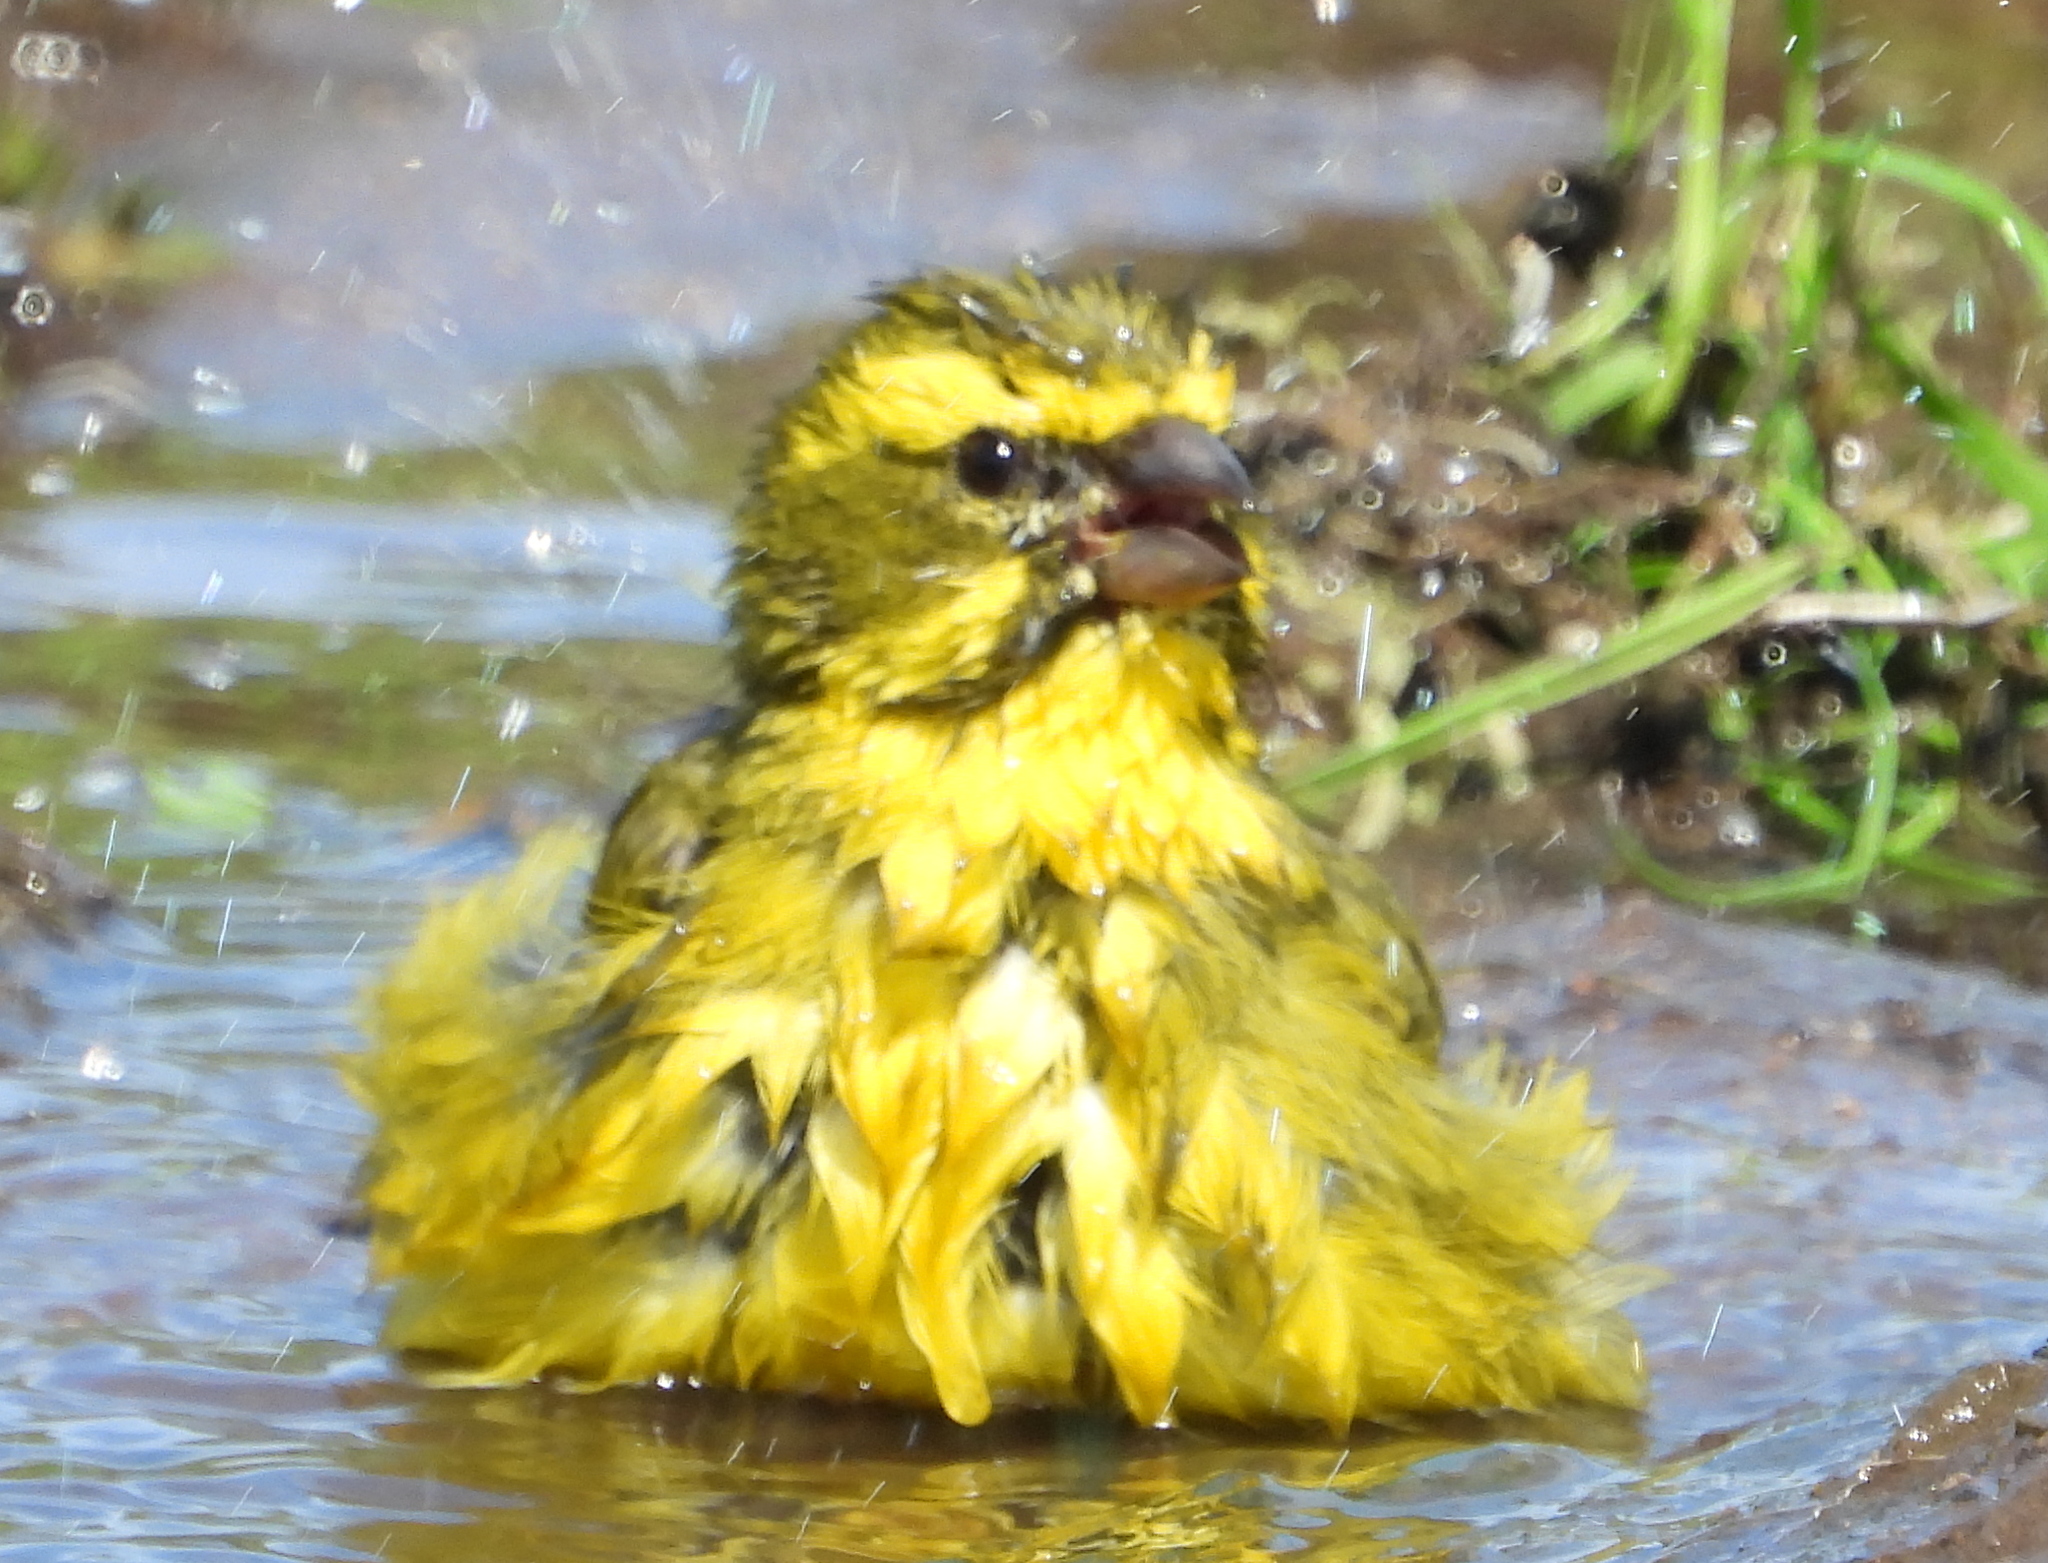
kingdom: Animalia
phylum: Chordata
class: Aves
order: Passeriformes
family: Fringillidae
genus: Crithagra
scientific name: Crithagra flaviventris
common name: Yellow canary
